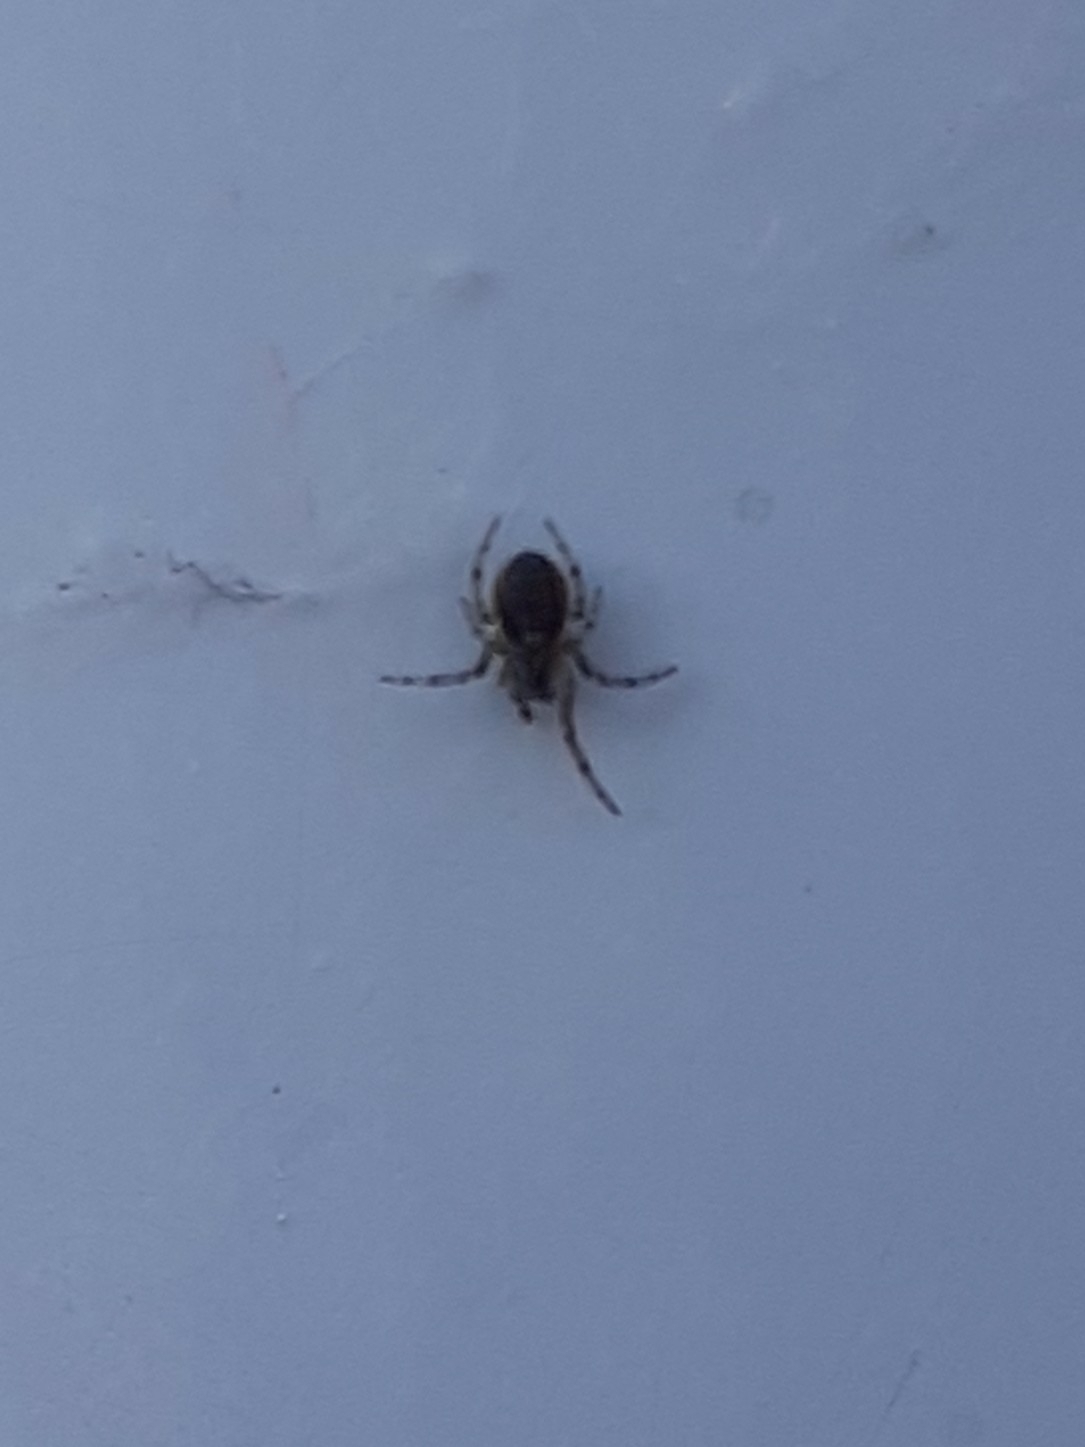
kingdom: Animalia
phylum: Arthropoda
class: Arachnida
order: Araneae
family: Araneidae
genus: Zygiella
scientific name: Zygiella x-notata
